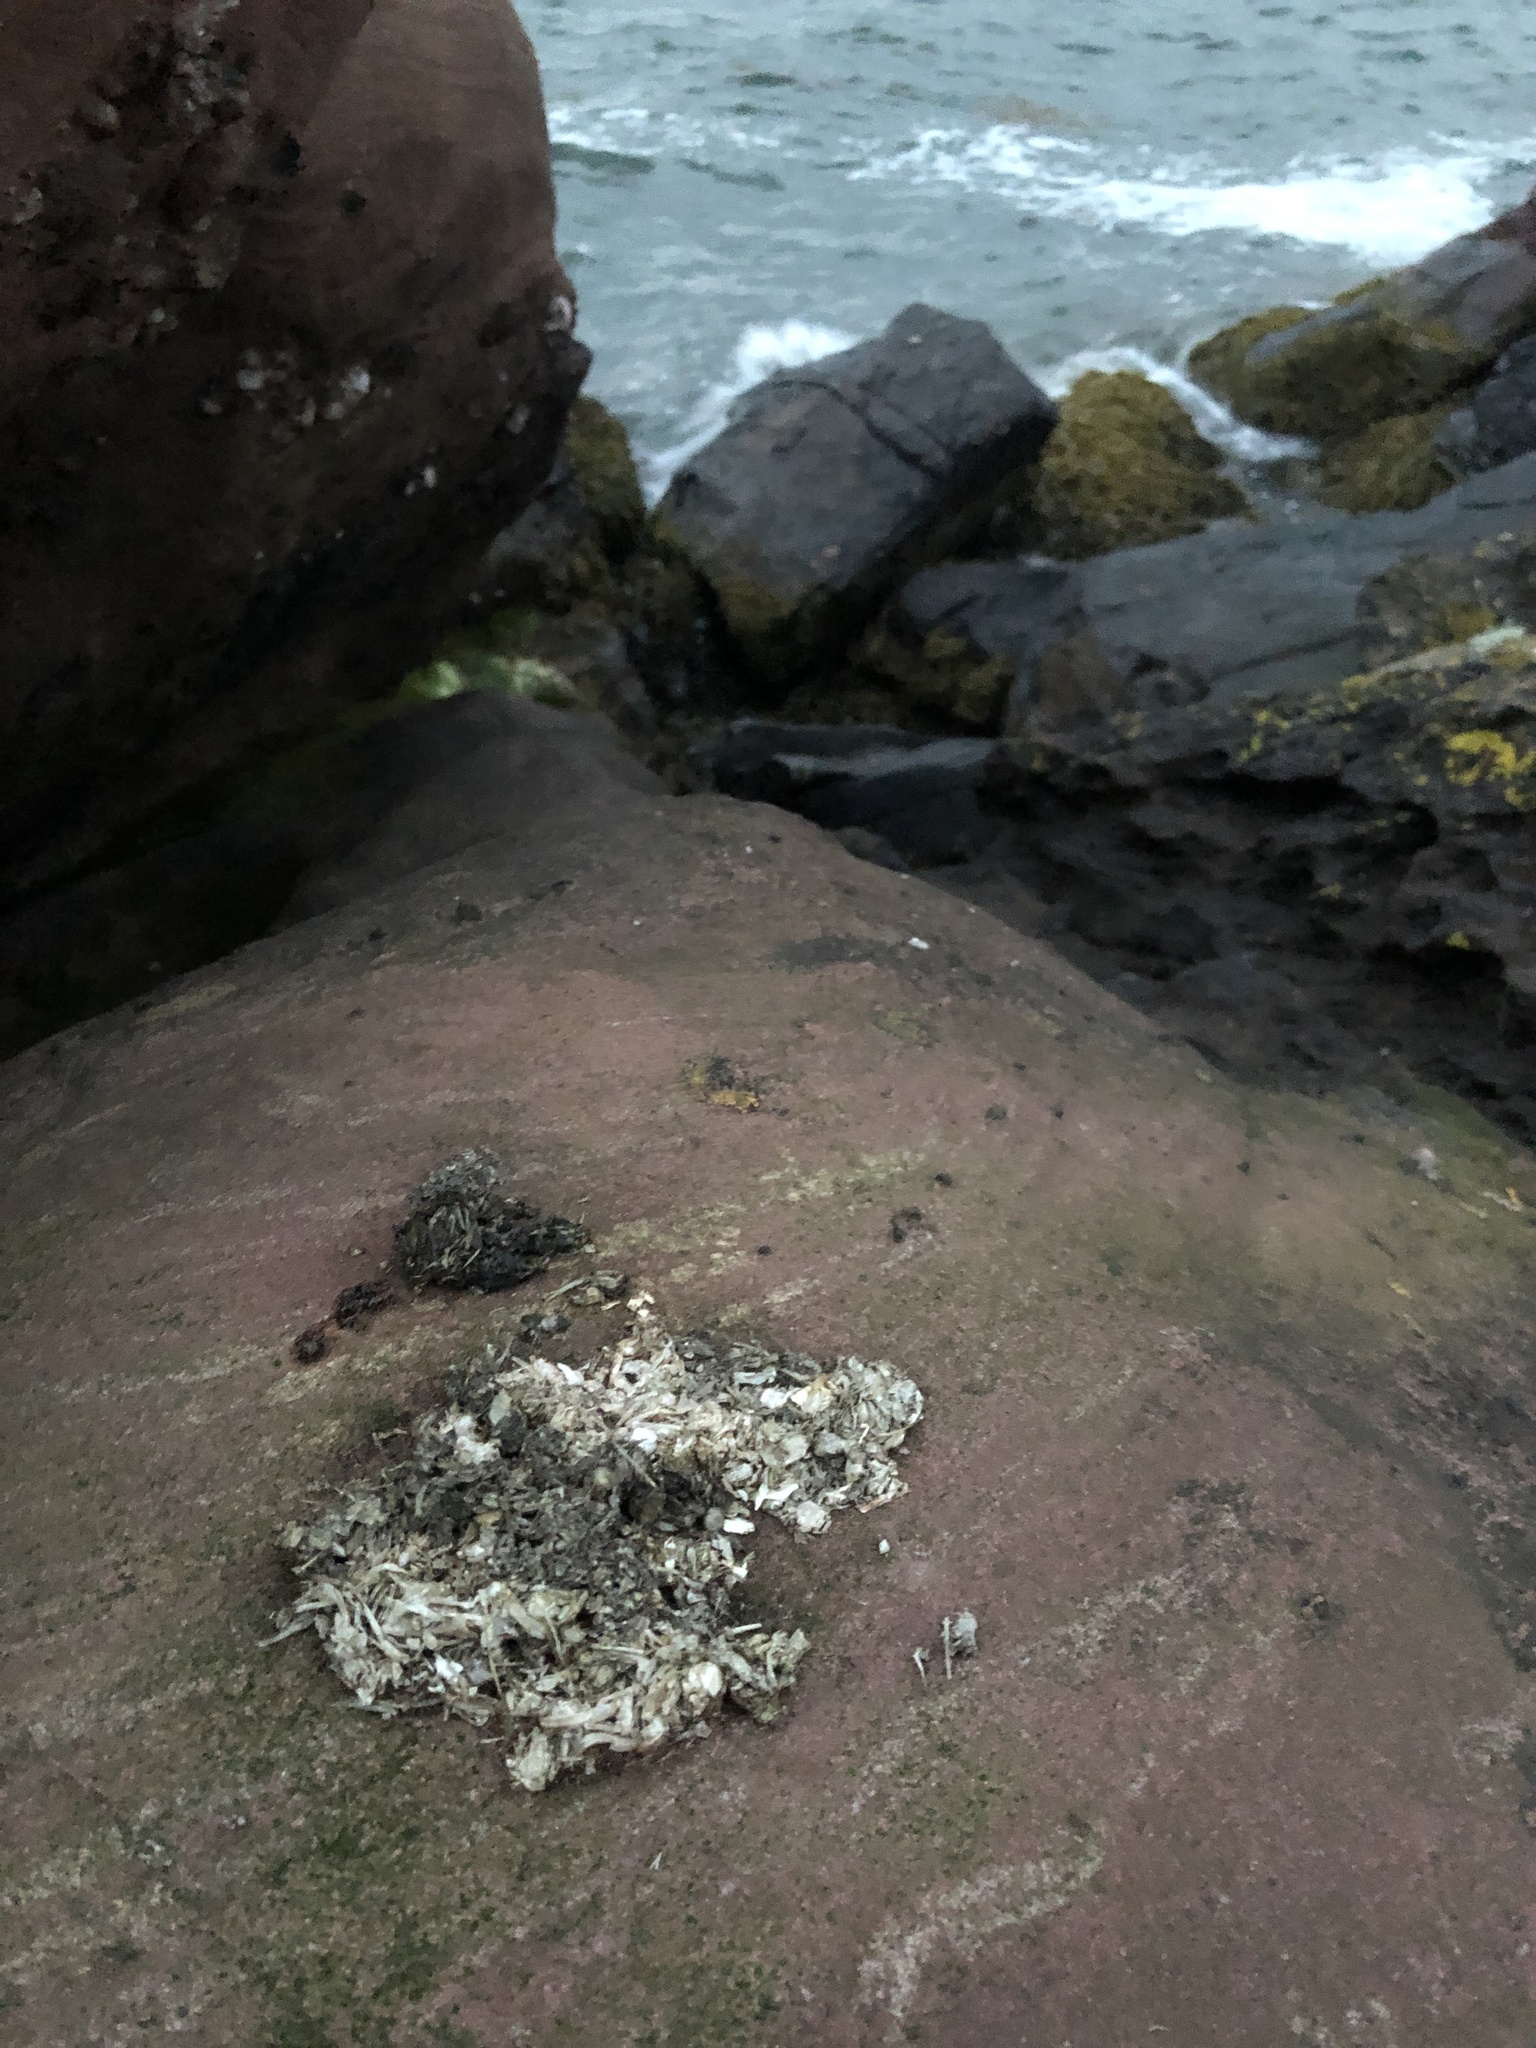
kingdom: Animalia
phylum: Chordata
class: Mammalia
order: Carnivora
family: Mustelidae
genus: Lutra
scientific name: Lutra lutra
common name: European otter
